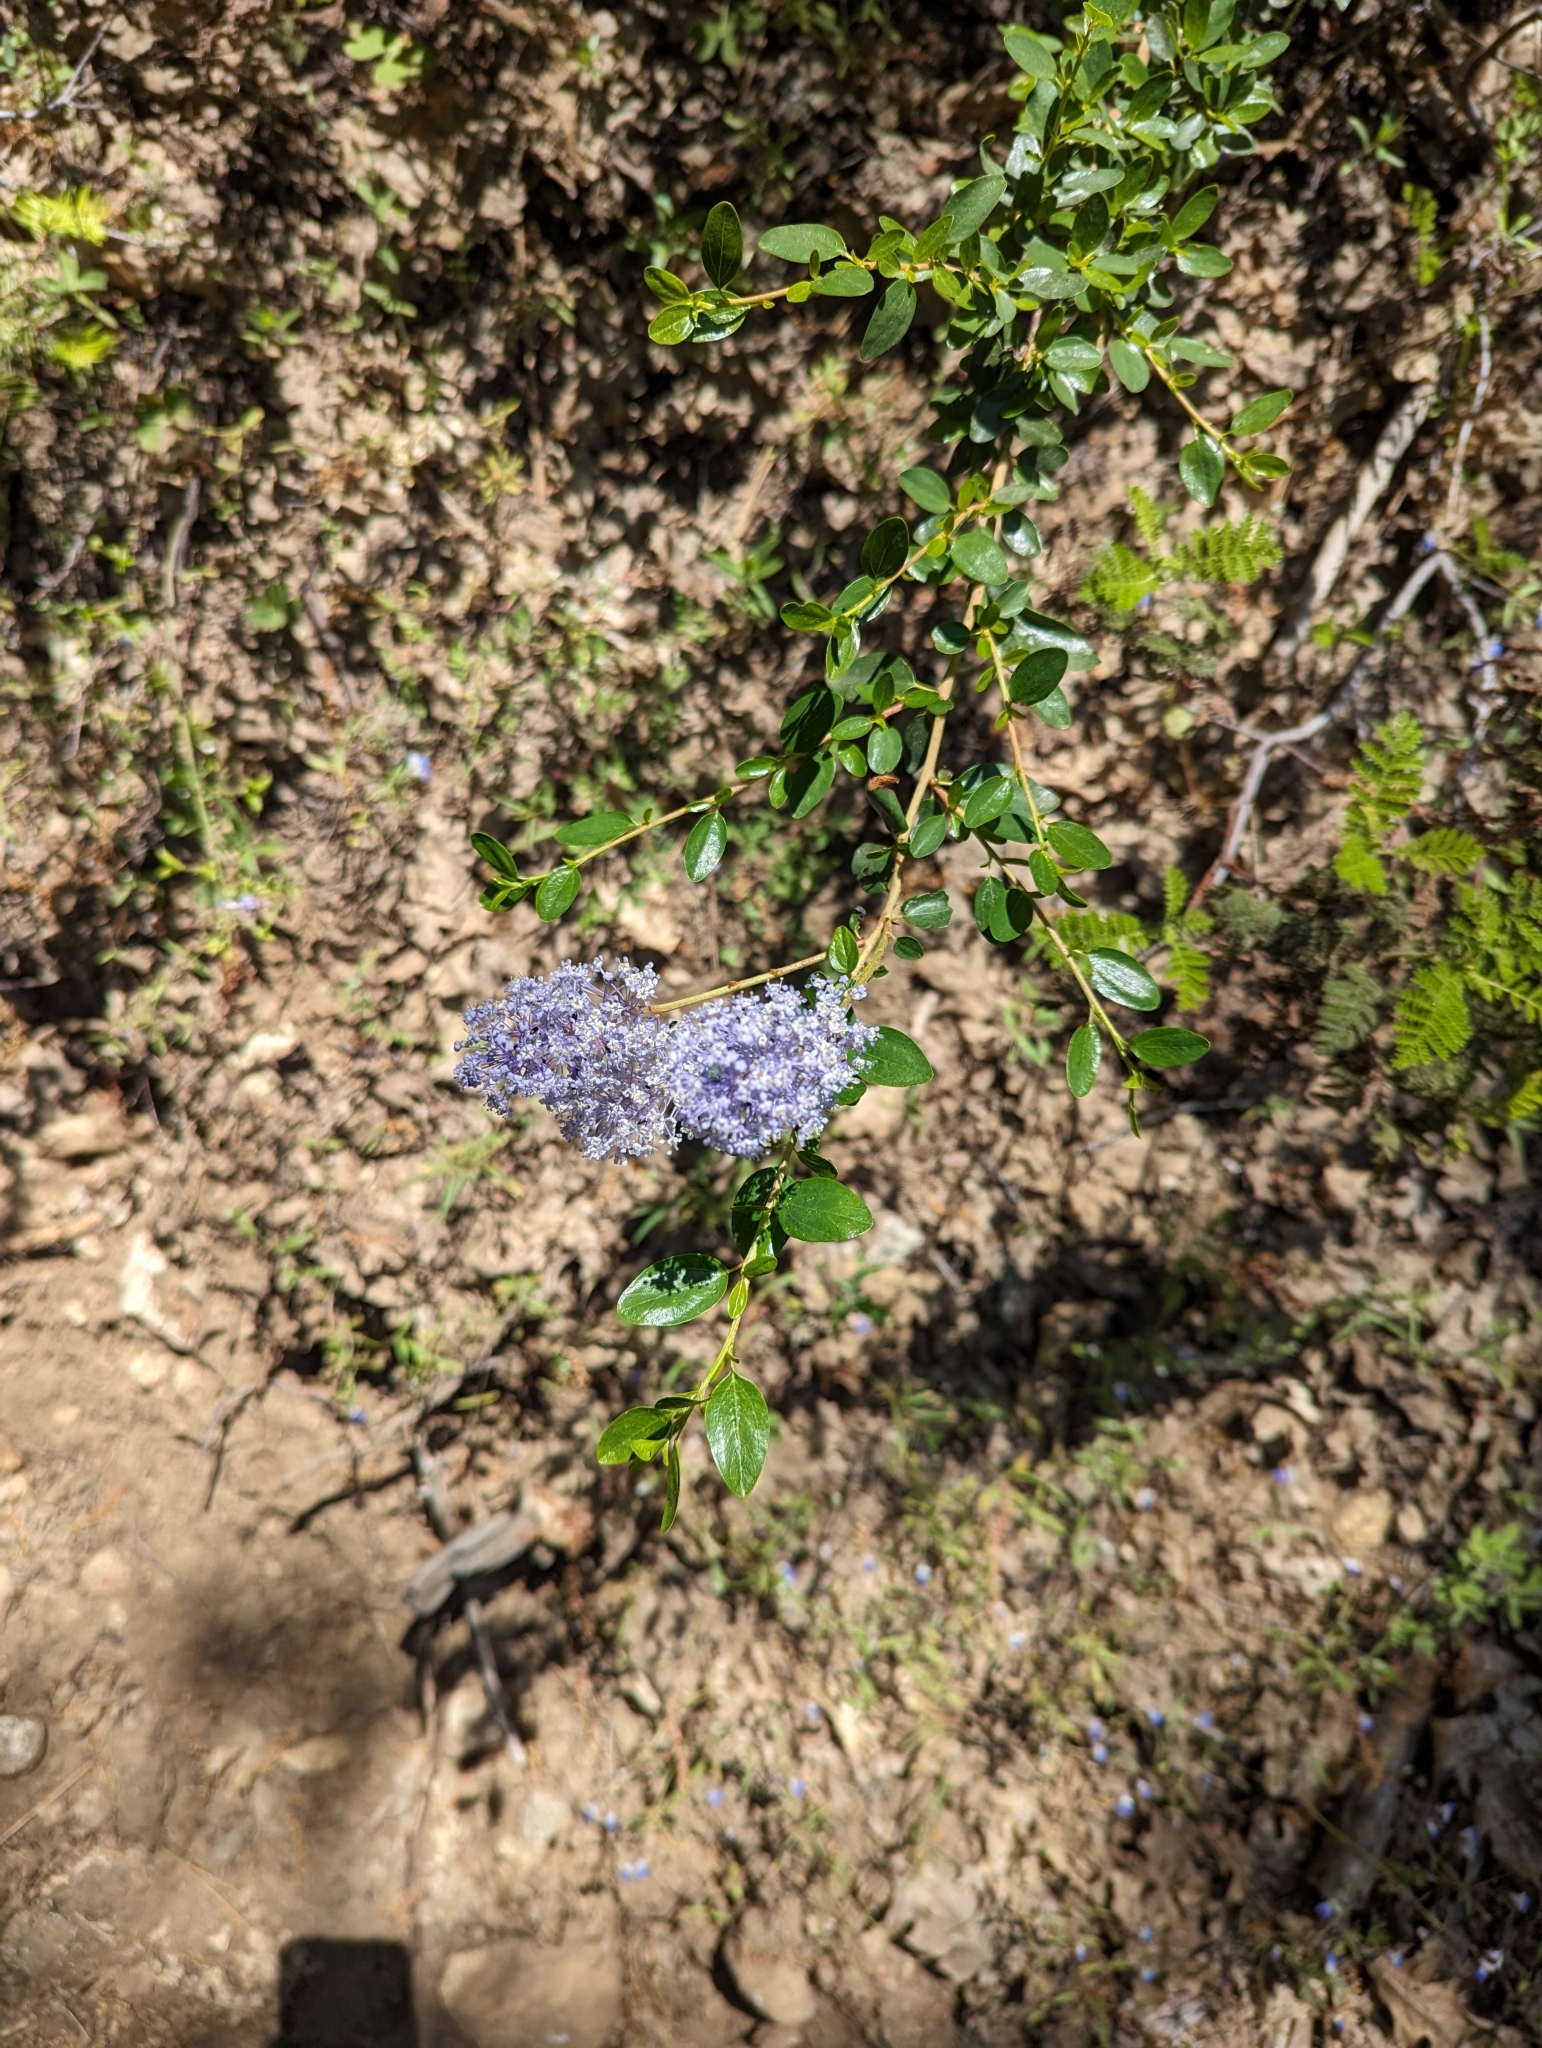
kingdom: Plantae
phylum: Tracheophyta
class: Magnoliopsida
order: Rosales
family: Rhamnaceae
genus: Ceanothus
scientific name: Ceanothus parvifolius
